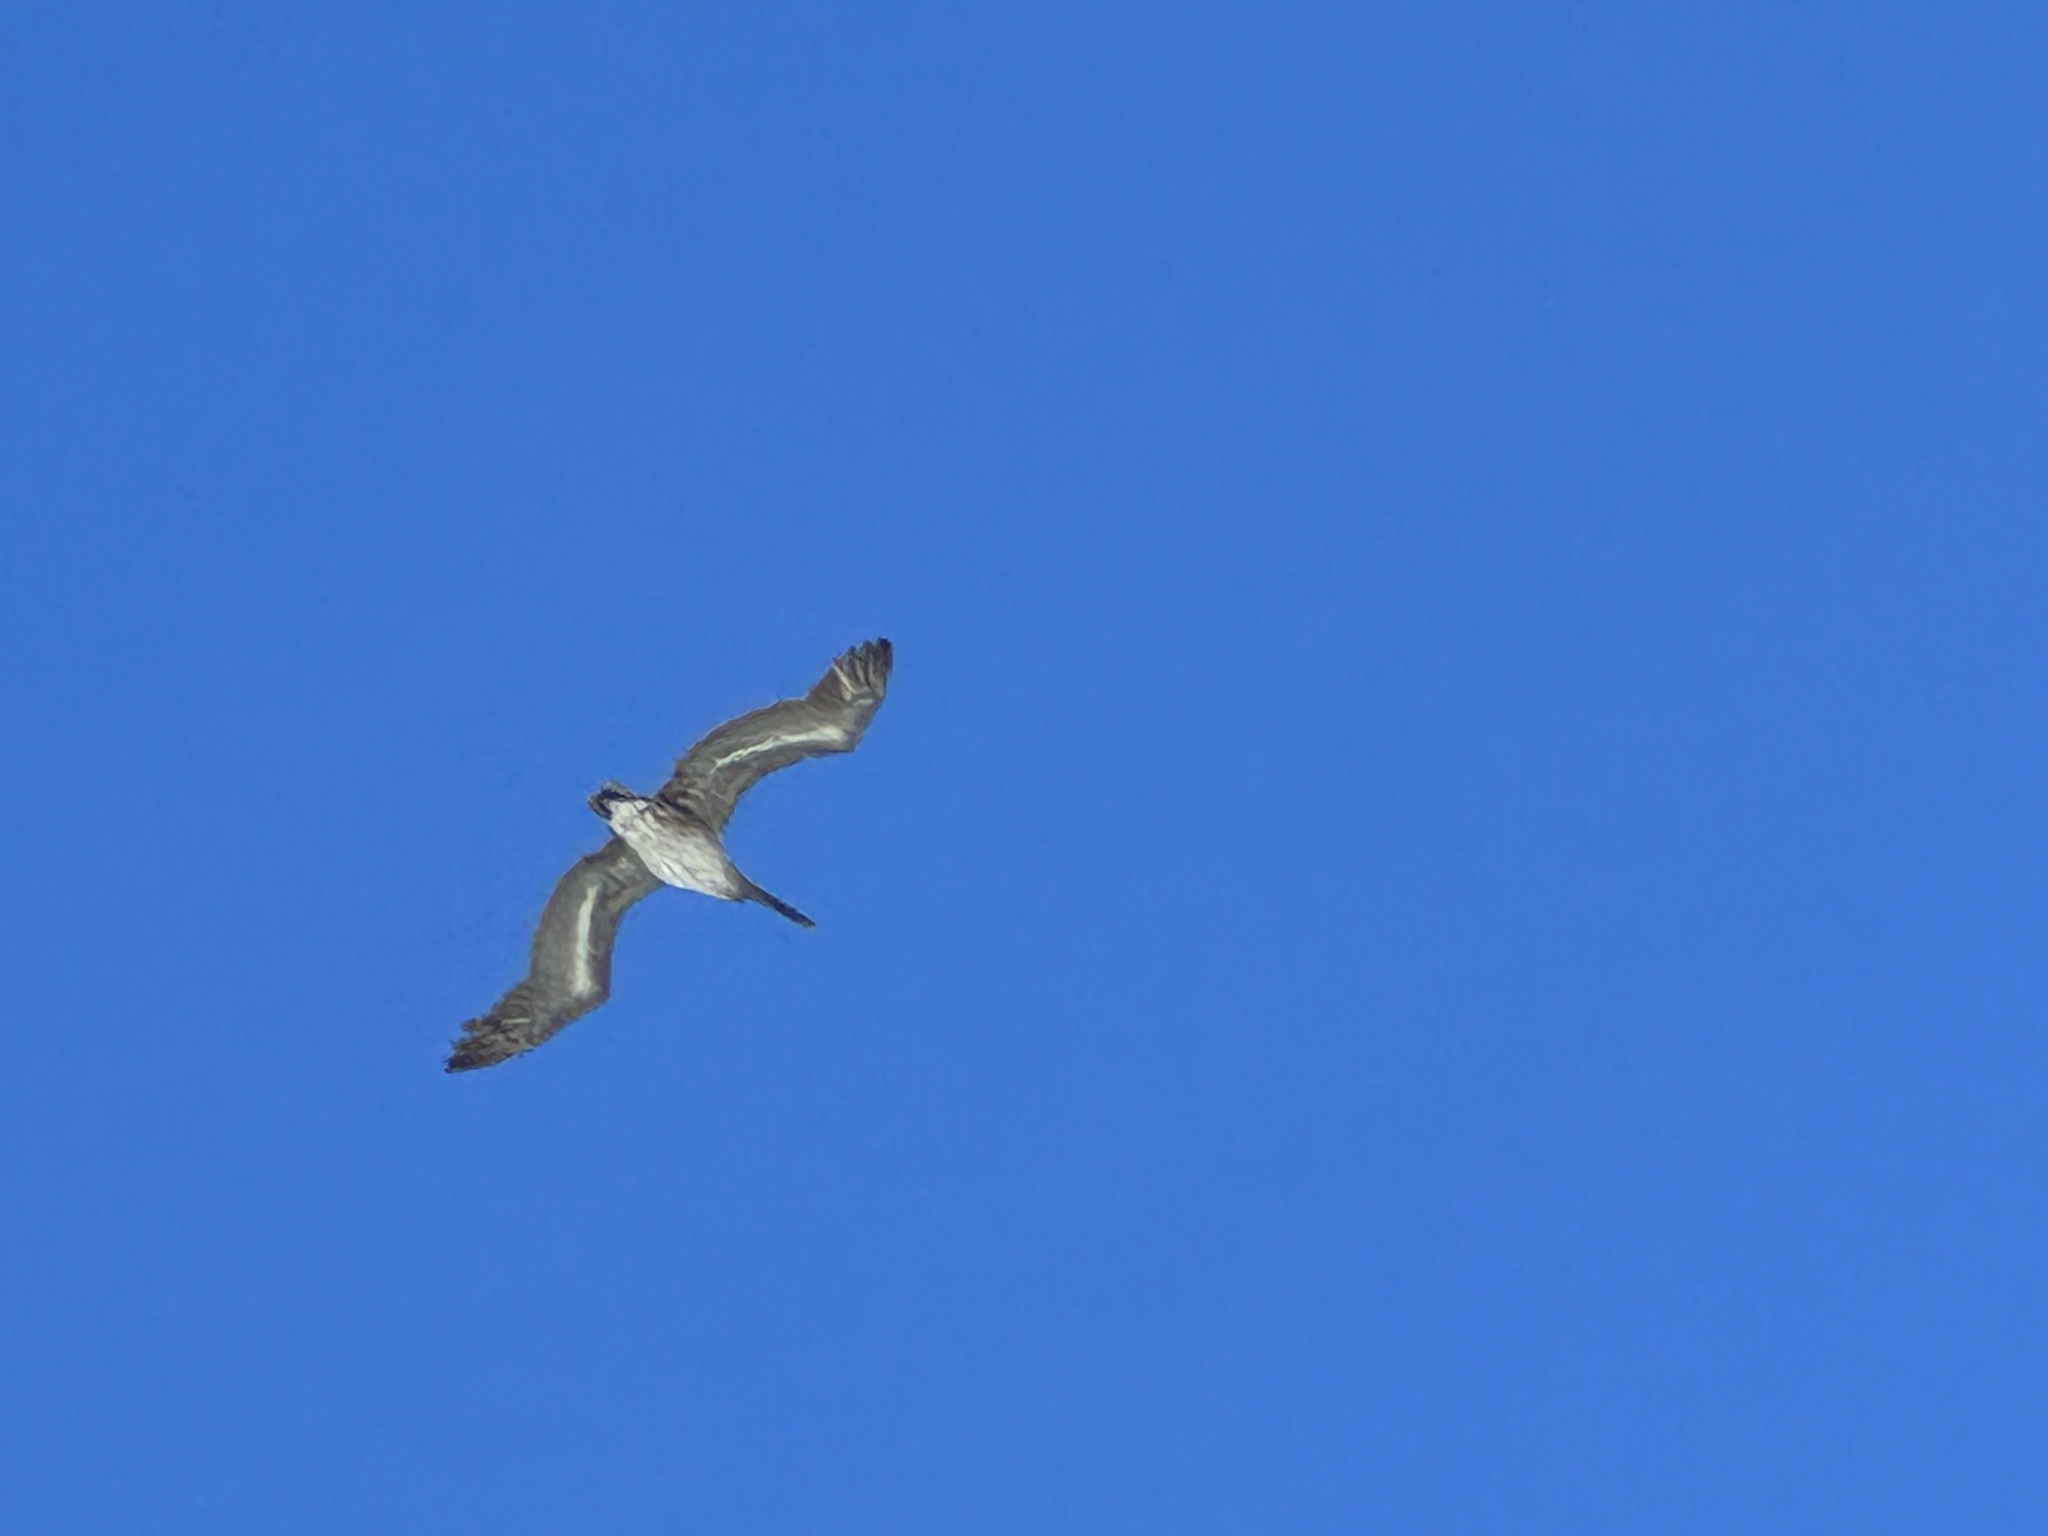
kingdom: Animalia
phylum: Chordata
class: Aves
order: Pelecaniformes
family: Pelecanidae
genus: Pelecanus
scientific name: Pelecanus occidentalis
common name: Brown pelican
